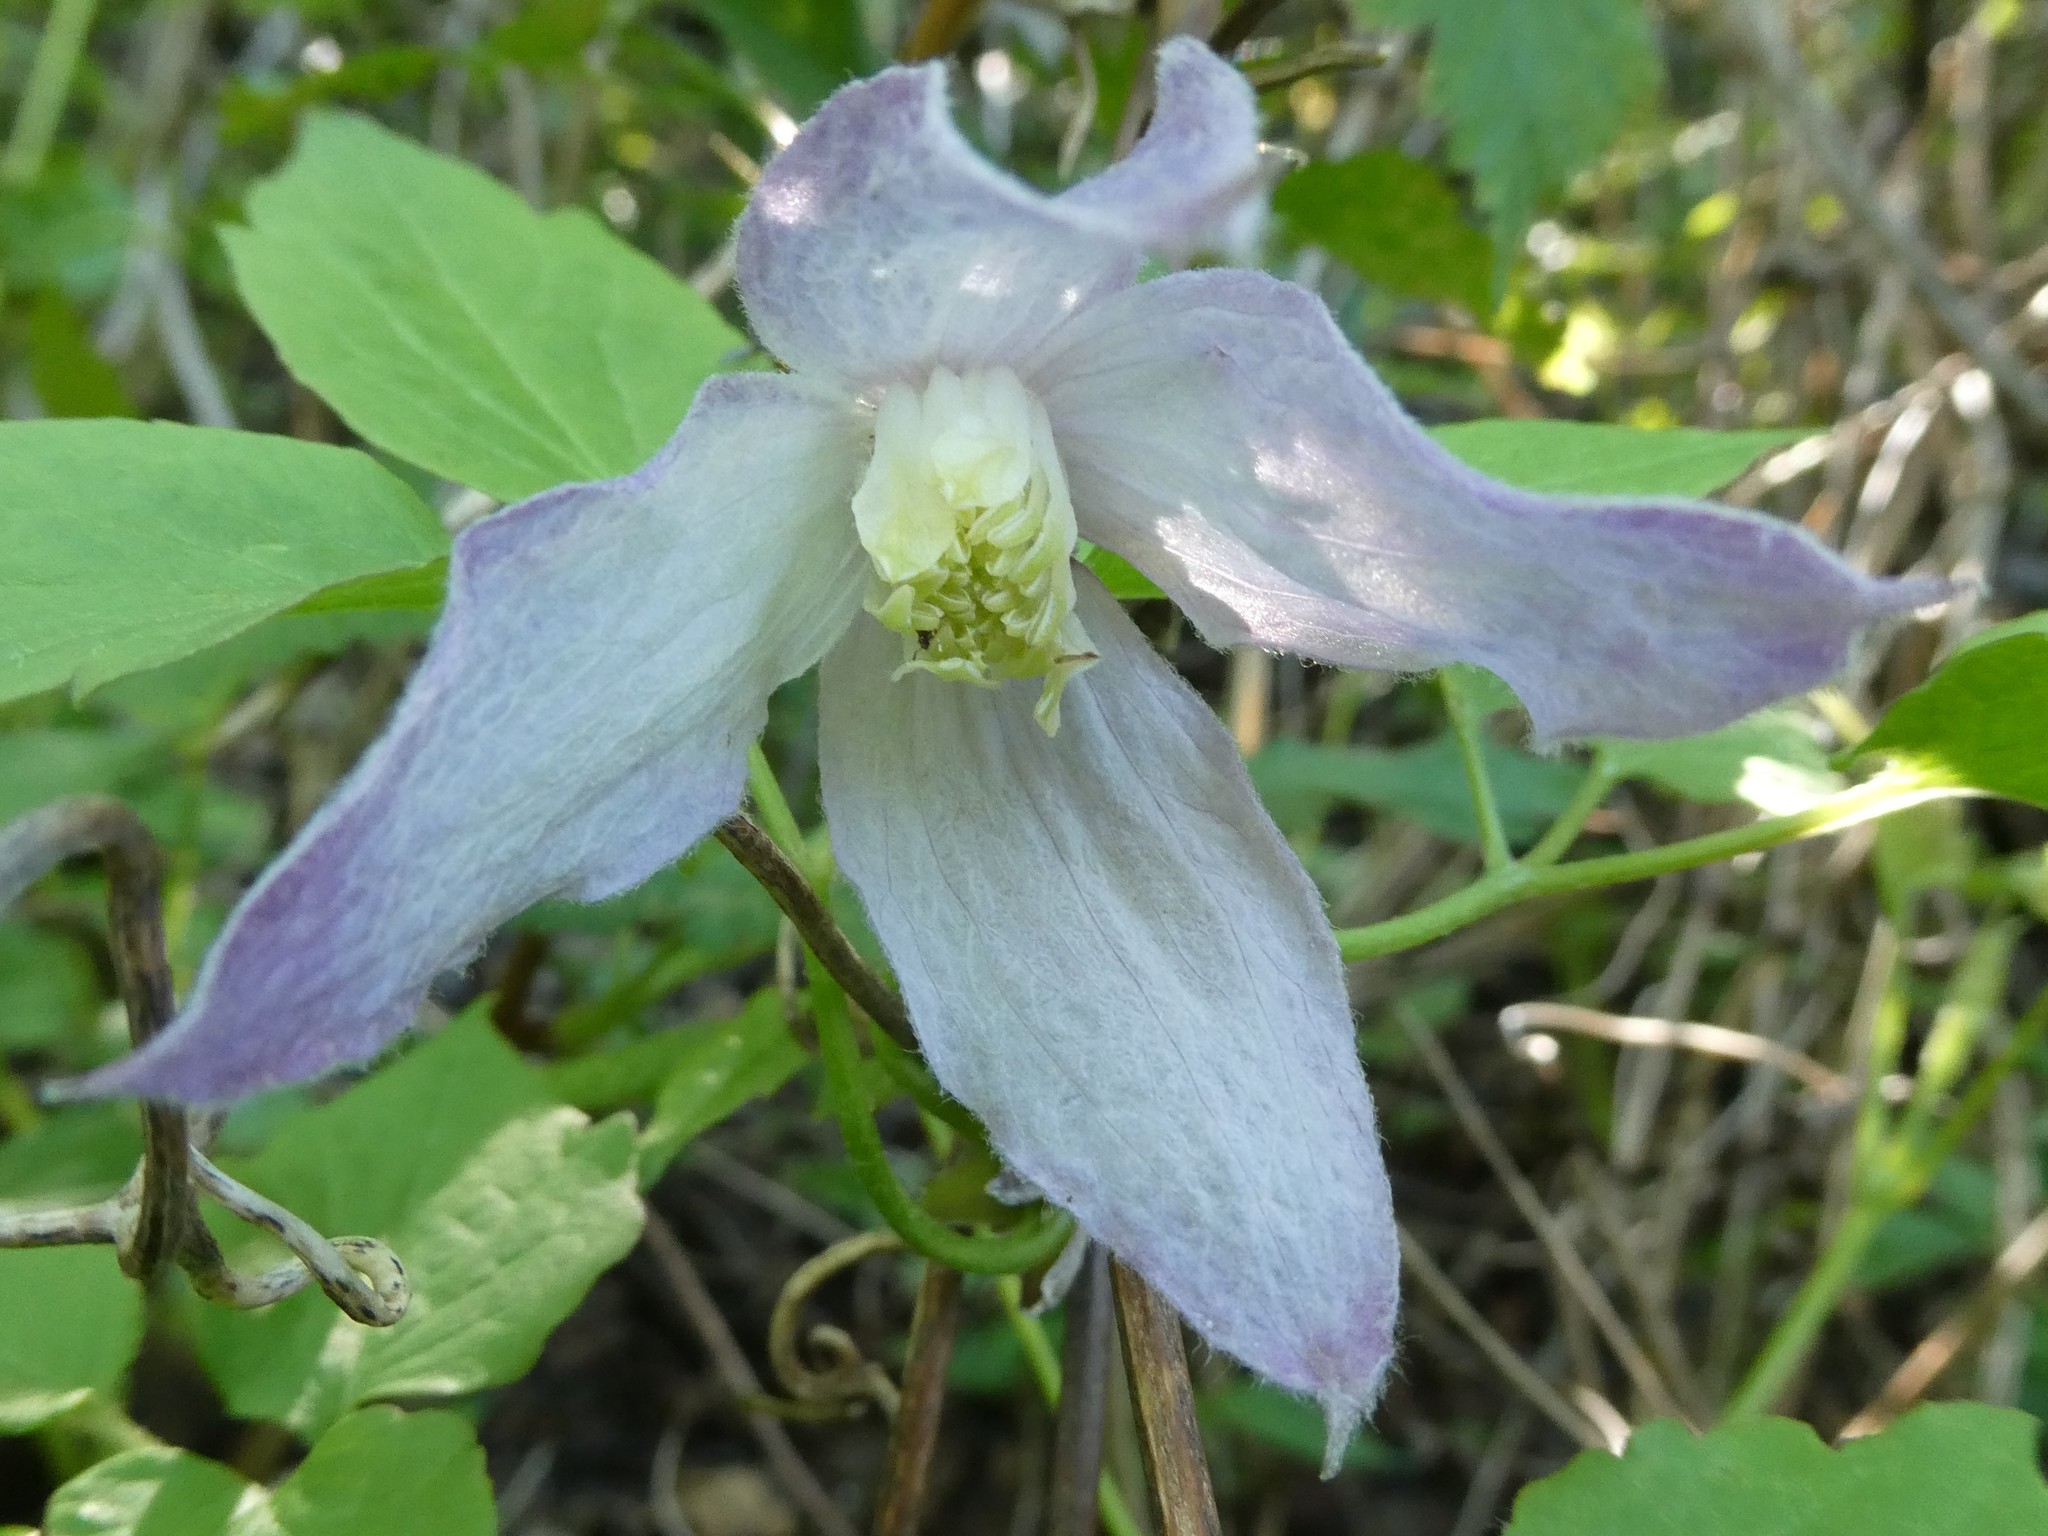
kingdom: Plantae
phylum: Tracheophyta
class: Magnoliopsida
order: Ranunculales
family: Ranunculaceae
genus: Clematis
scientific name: Clematis occidentalis
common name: Purple clematis
